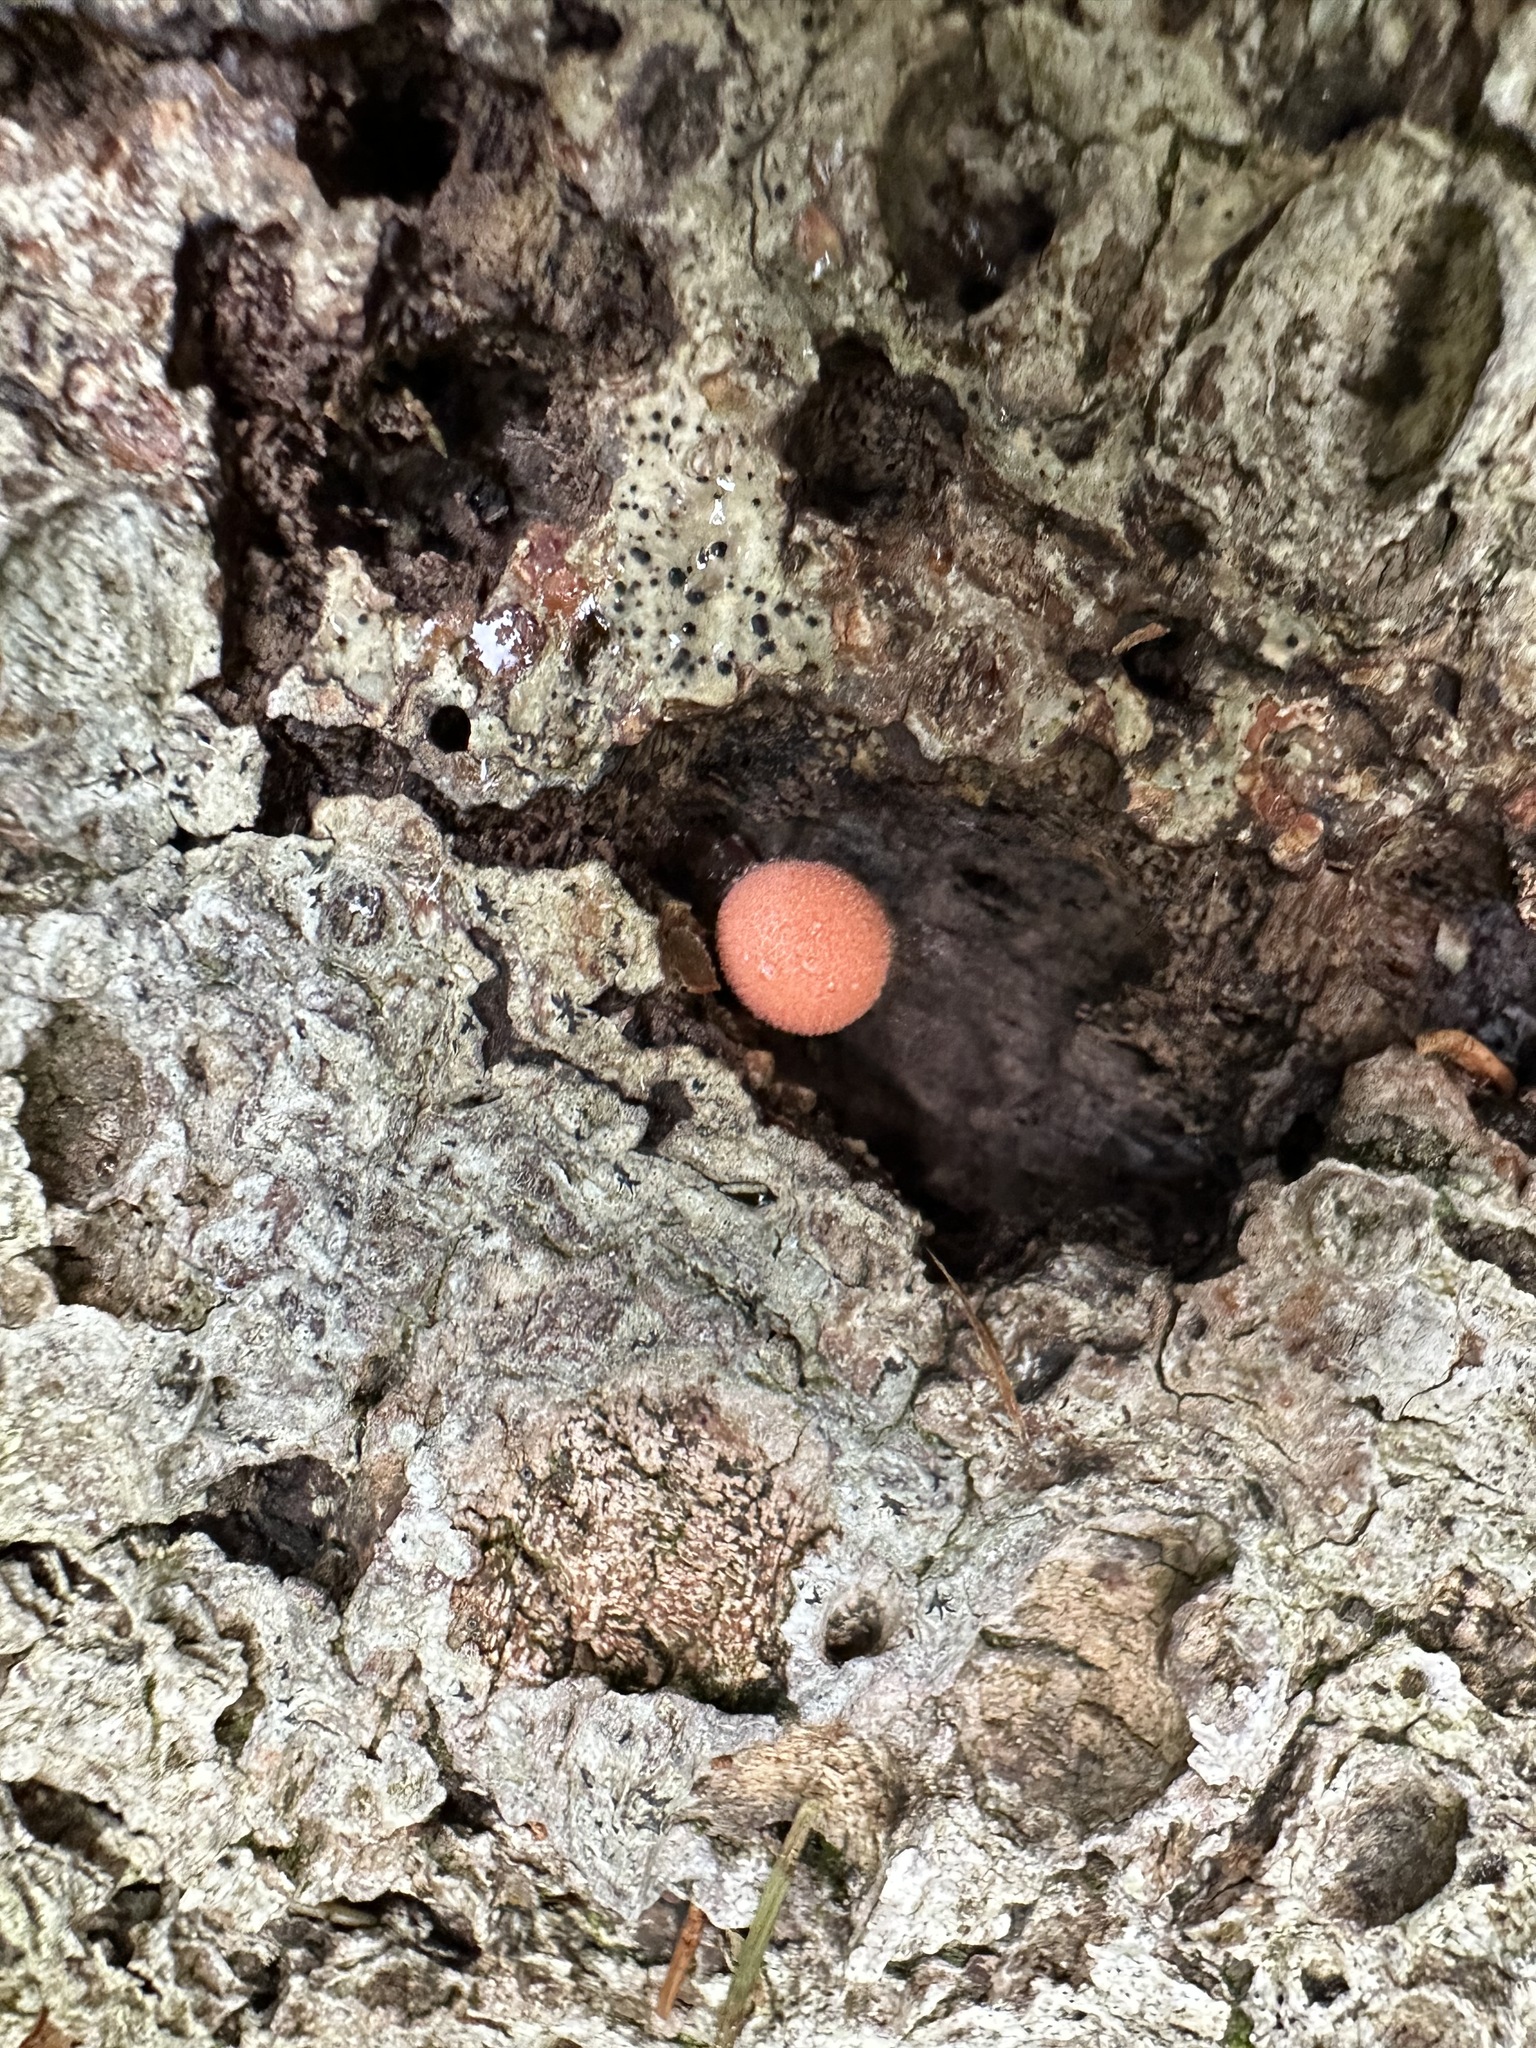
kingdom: Protozoa
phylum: Mycetozoa
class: Myxomycetes
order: Cribrariales
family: Tubiferaceae
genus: Lycogala
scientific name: Lycogala epidendrum
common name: Wolf's milk
